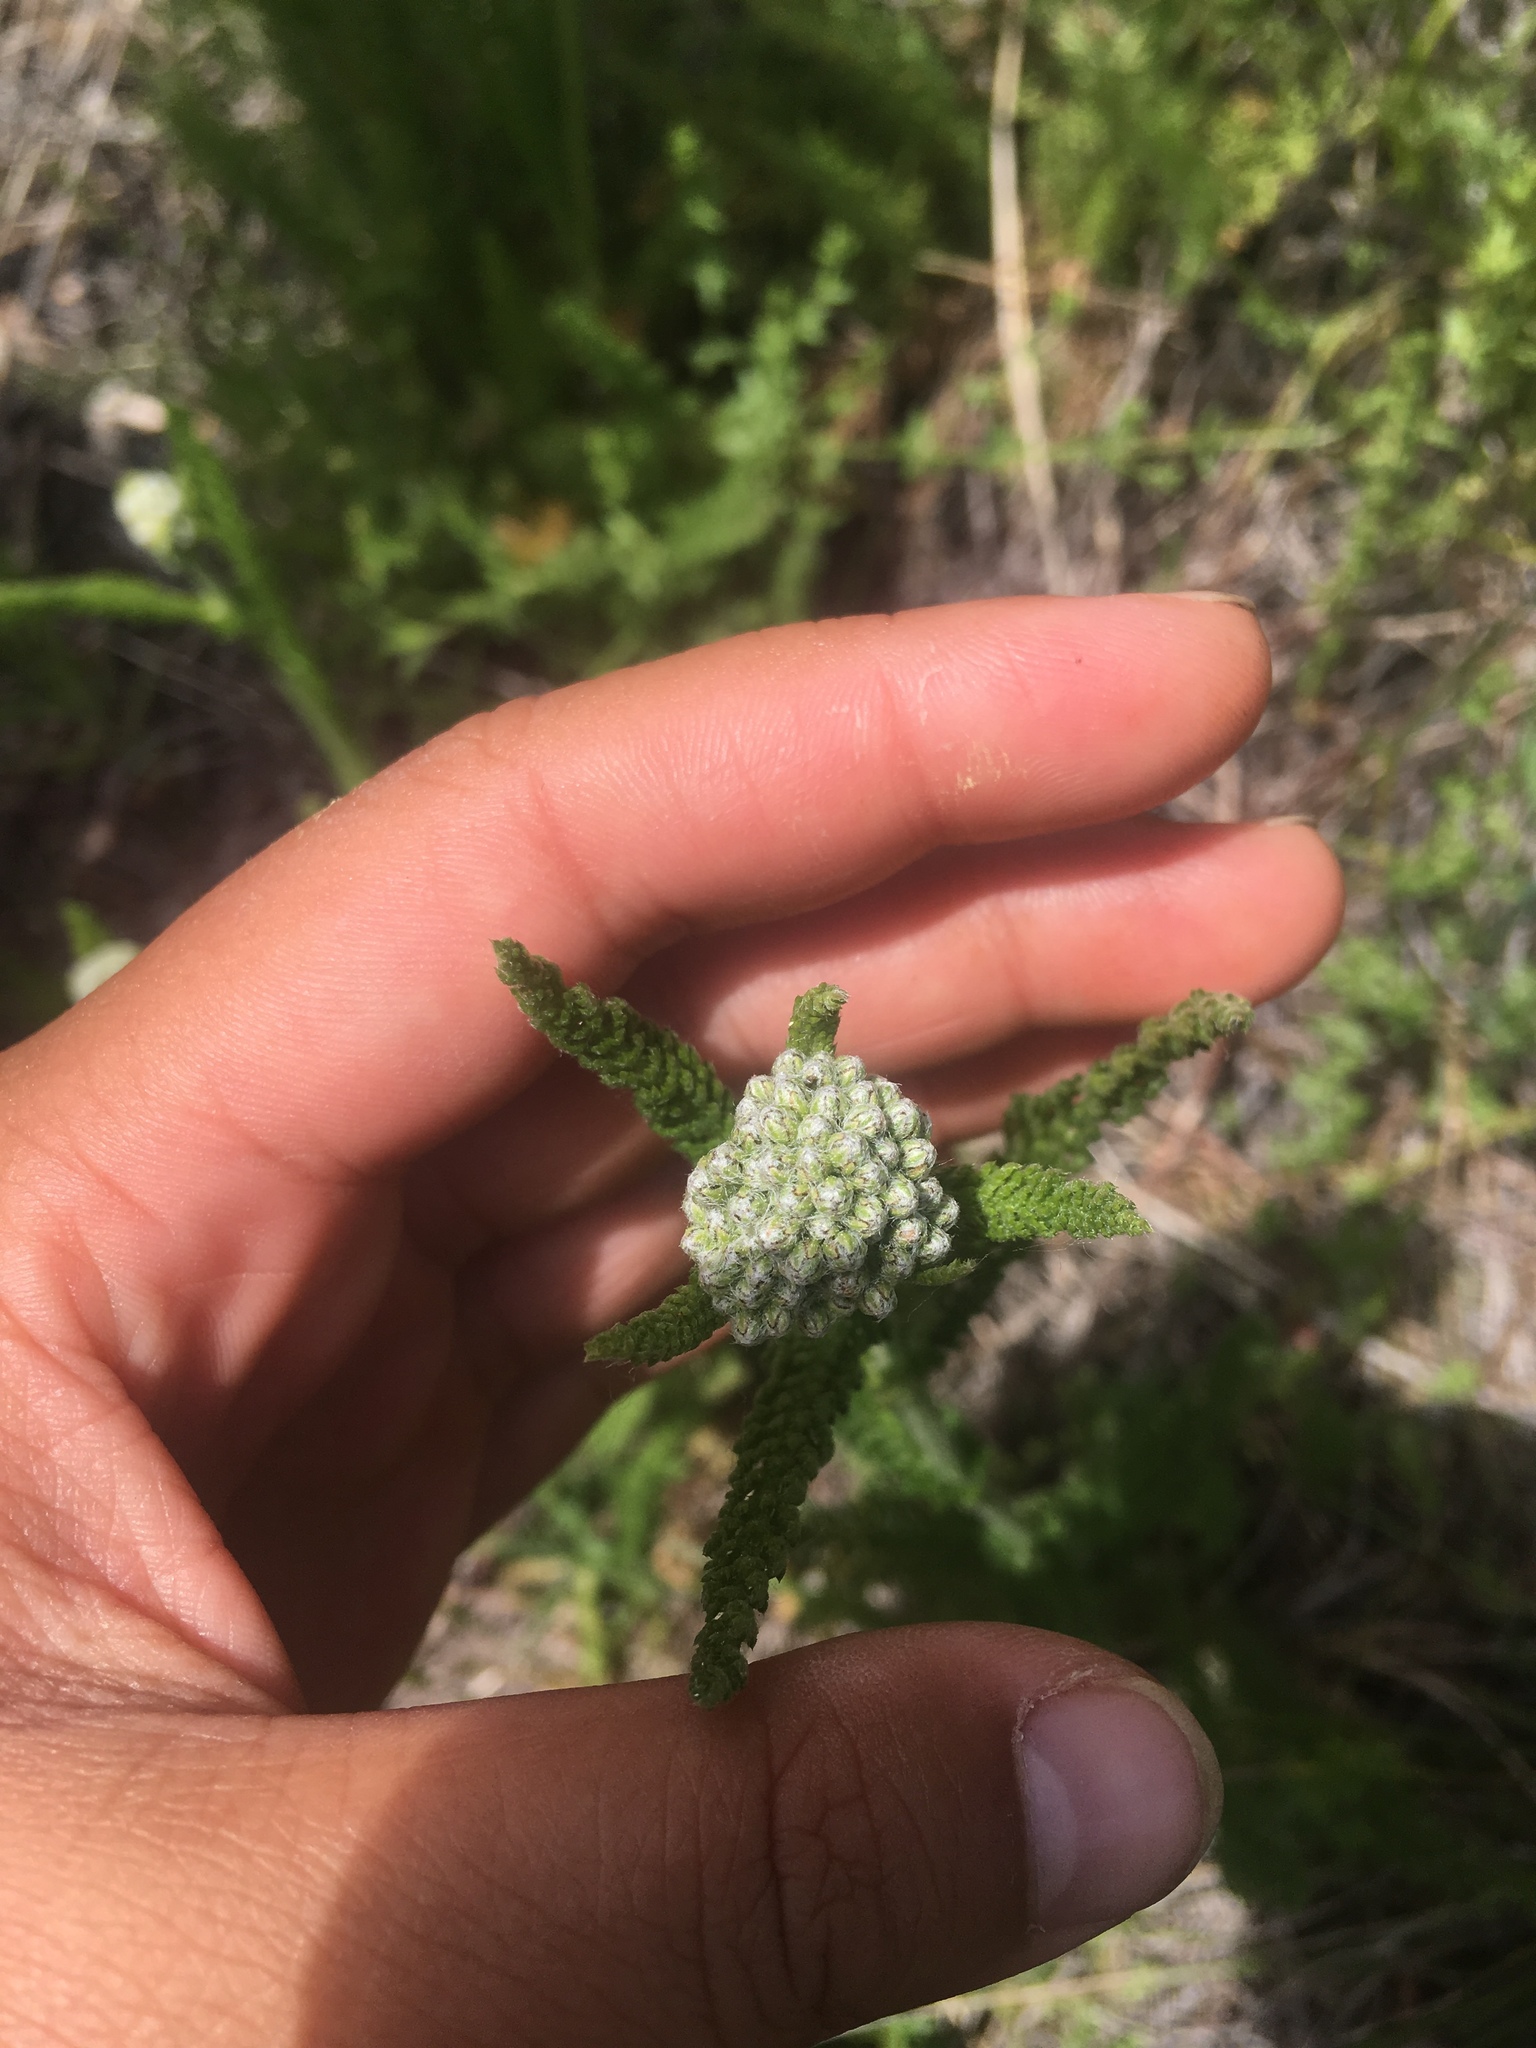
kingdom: Plantae
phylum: Tracheophyta
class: Magnoliopsida
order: Asterales
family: Asteraceae
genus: Achillea
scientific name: Achillea millefolium
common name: Yarrow
